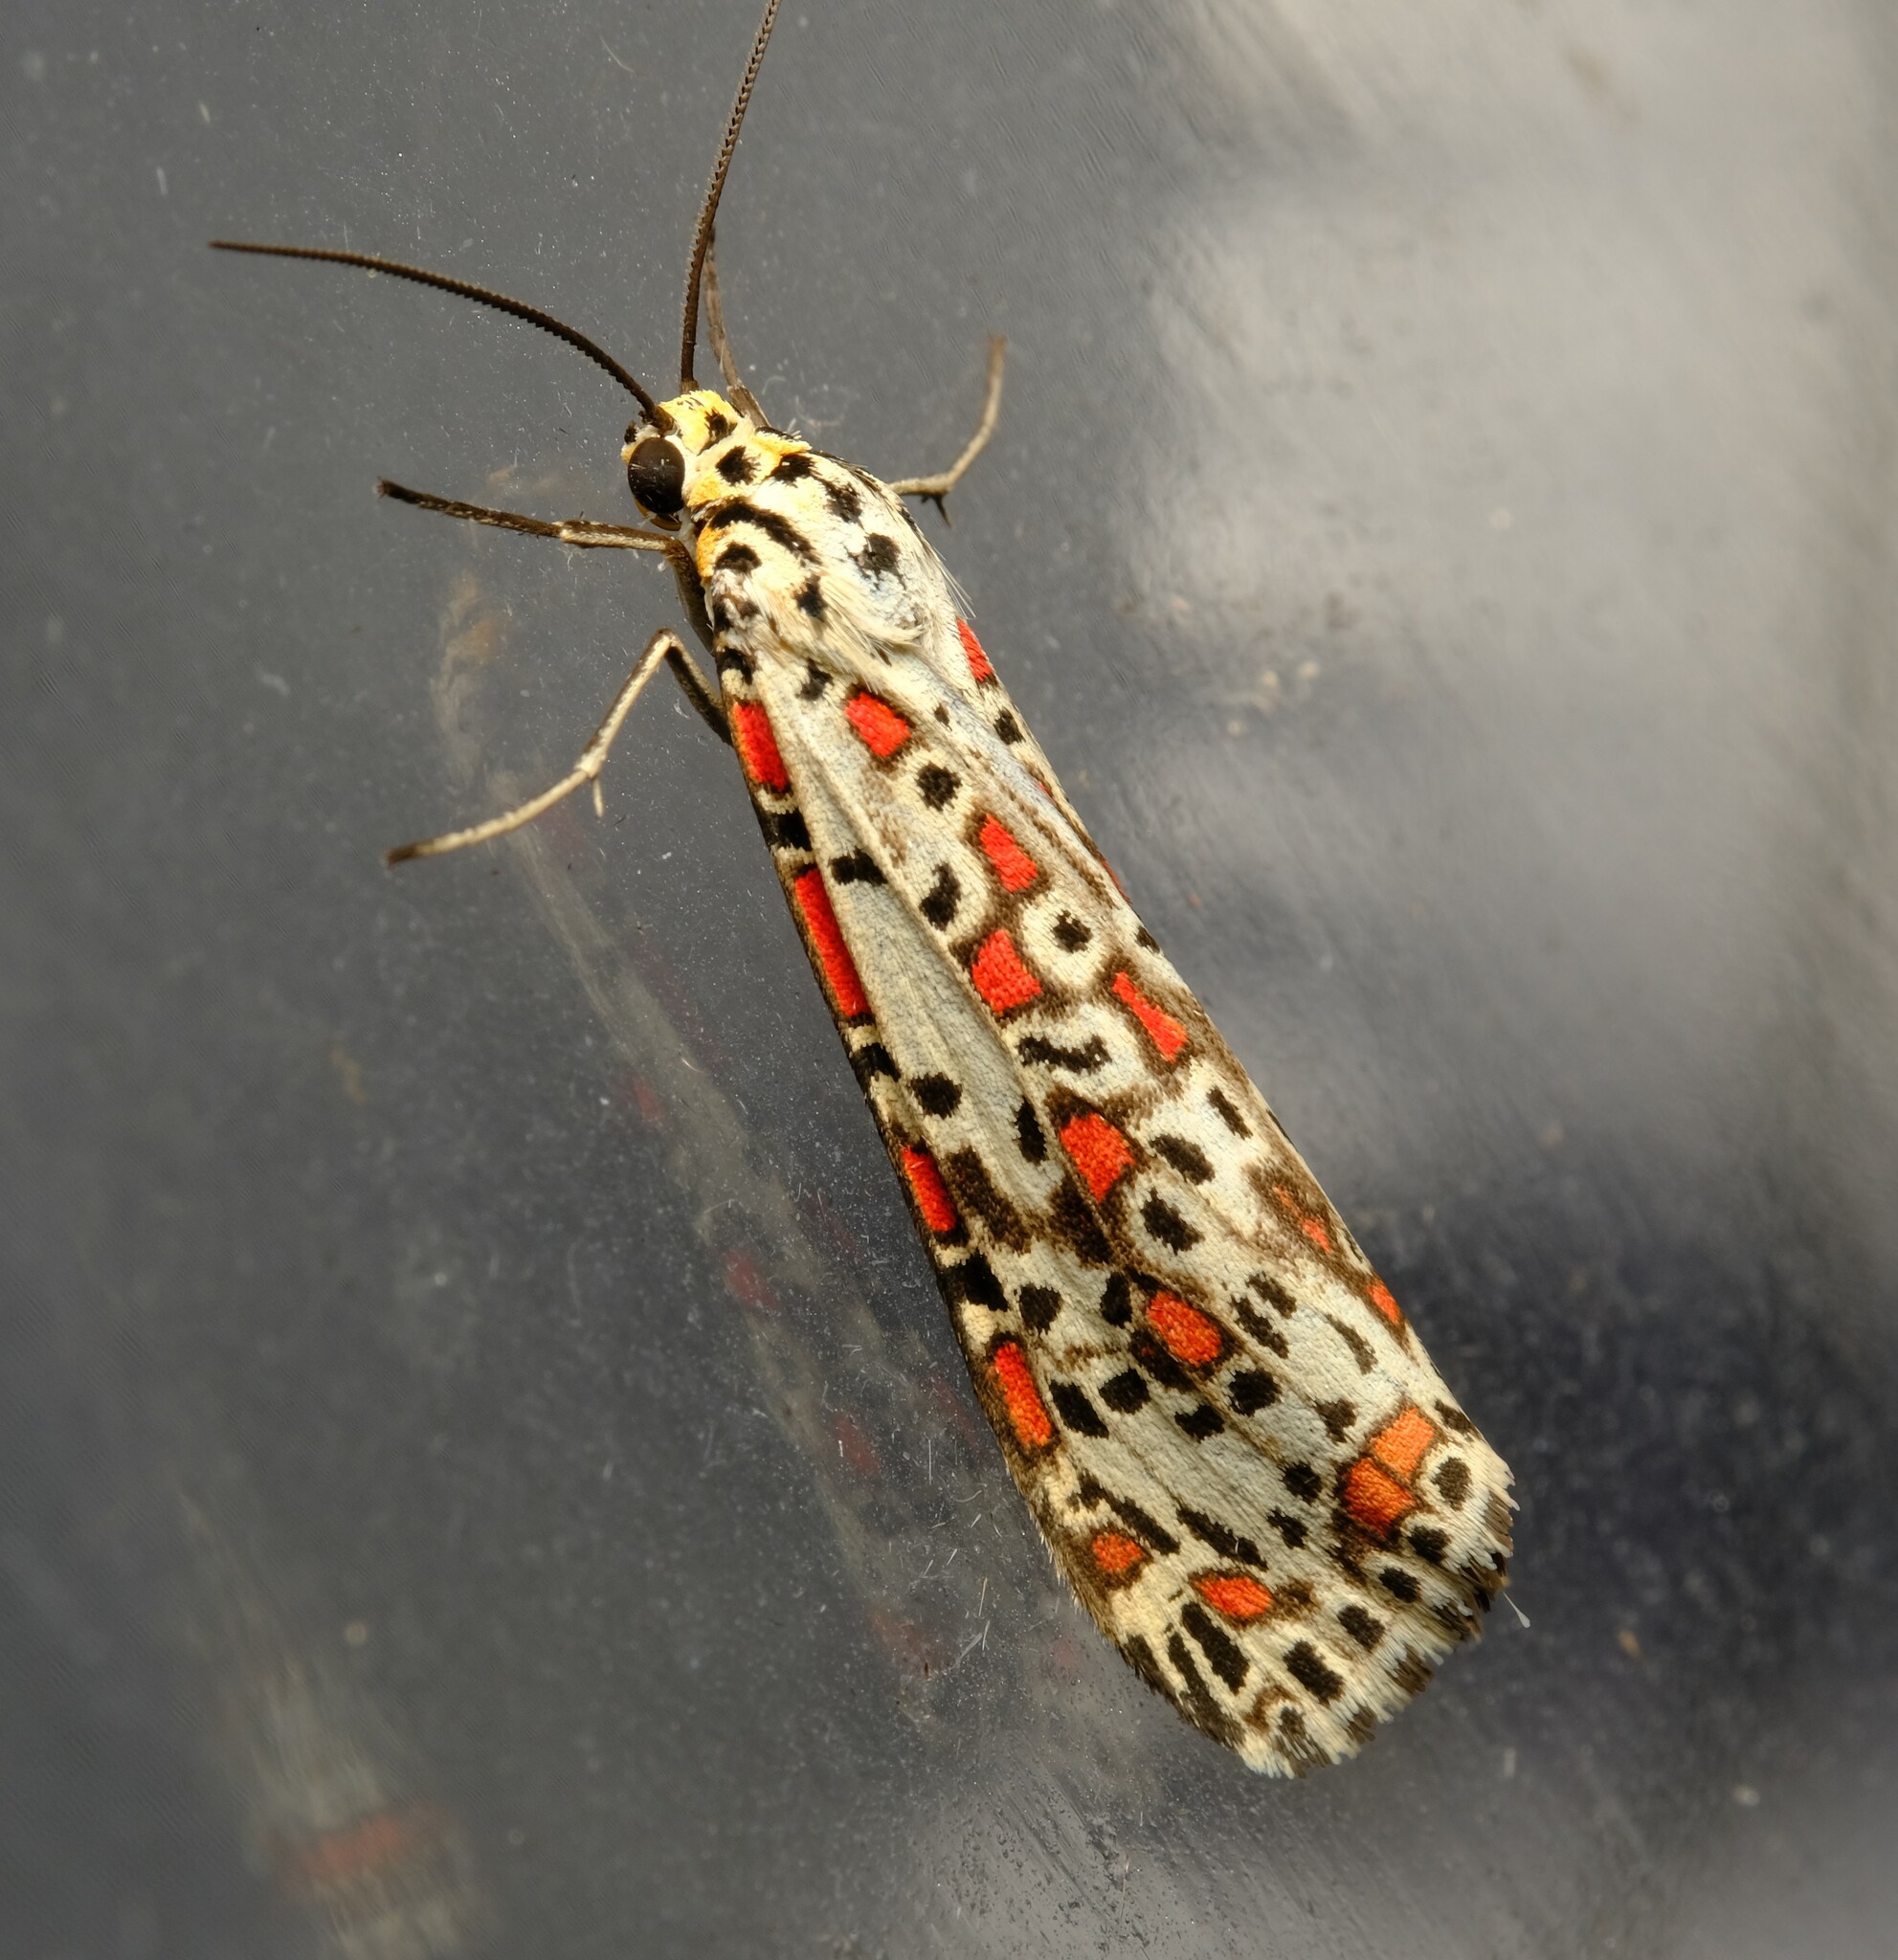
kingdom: Animalia
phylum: Arthropoda
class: Insecta
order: Lepidoptera
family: Erebidae
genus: Utetheisa
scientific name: Utetheisa pulchelloides
